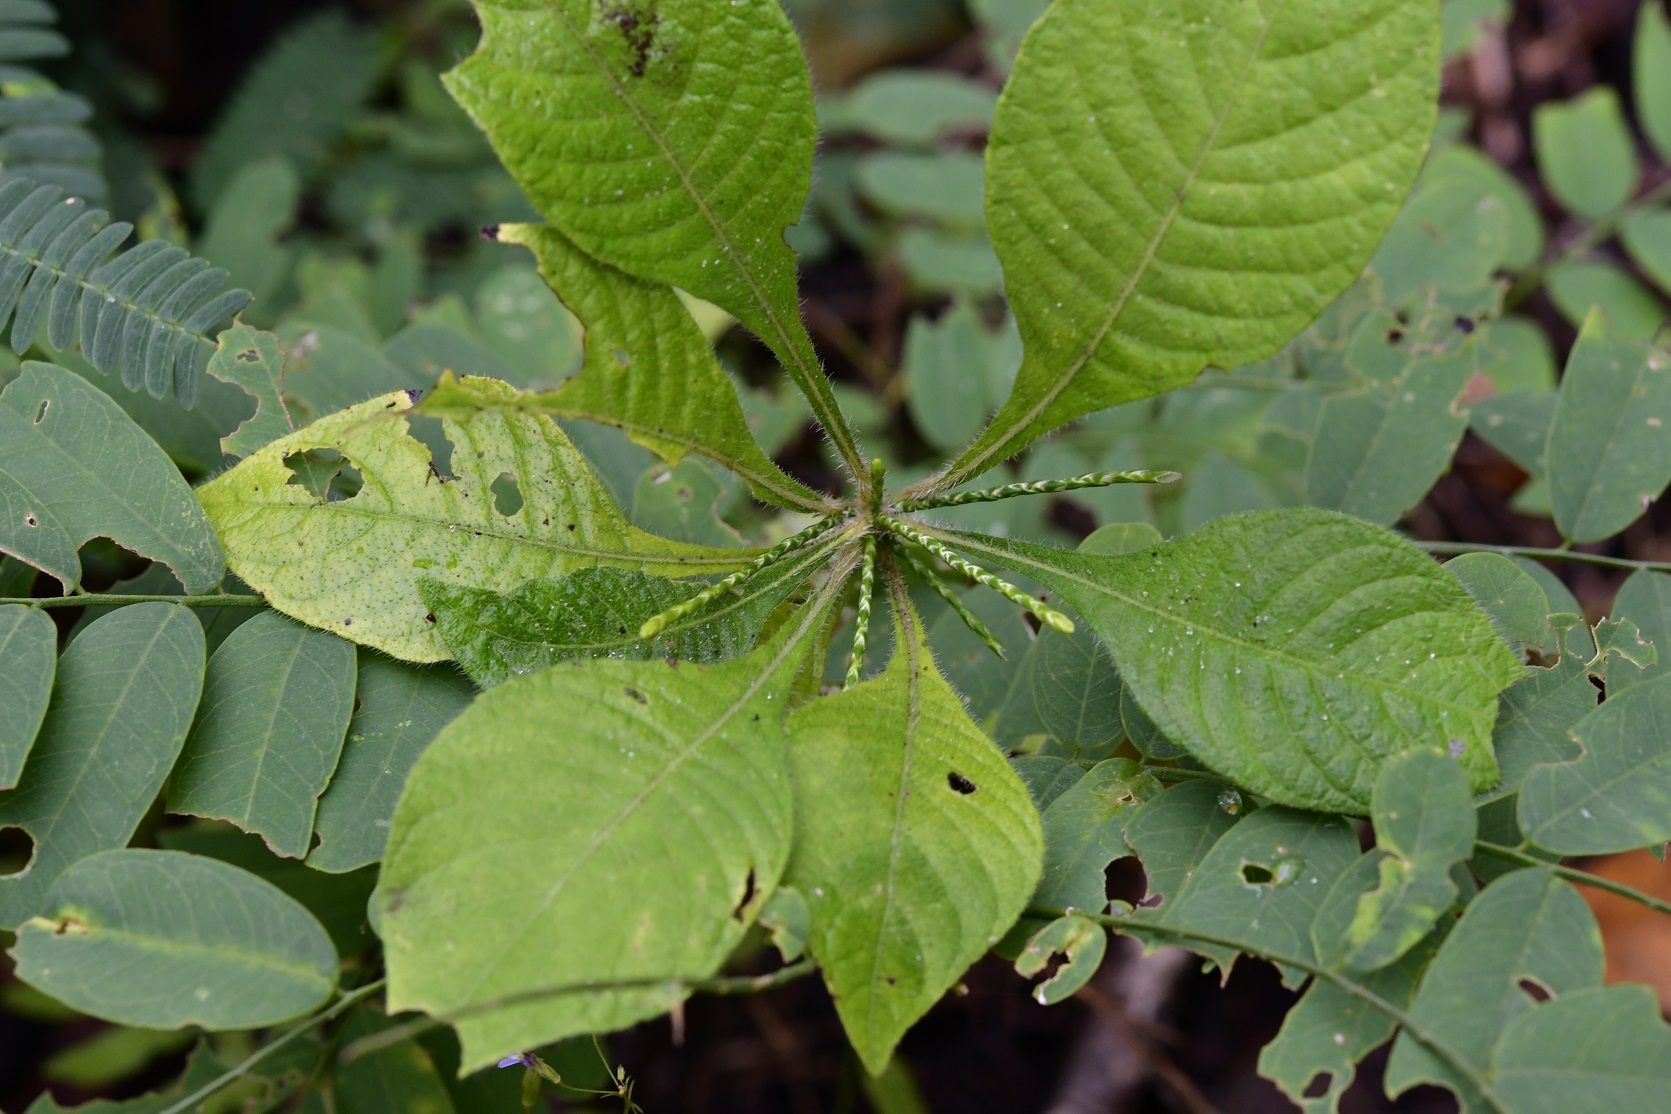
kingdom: Plantae
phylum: Tracheophyta
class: Magnoliopsida
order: Lamiales
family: Acanthaceae
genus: Elytraria
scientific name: Elytraria imbricata
